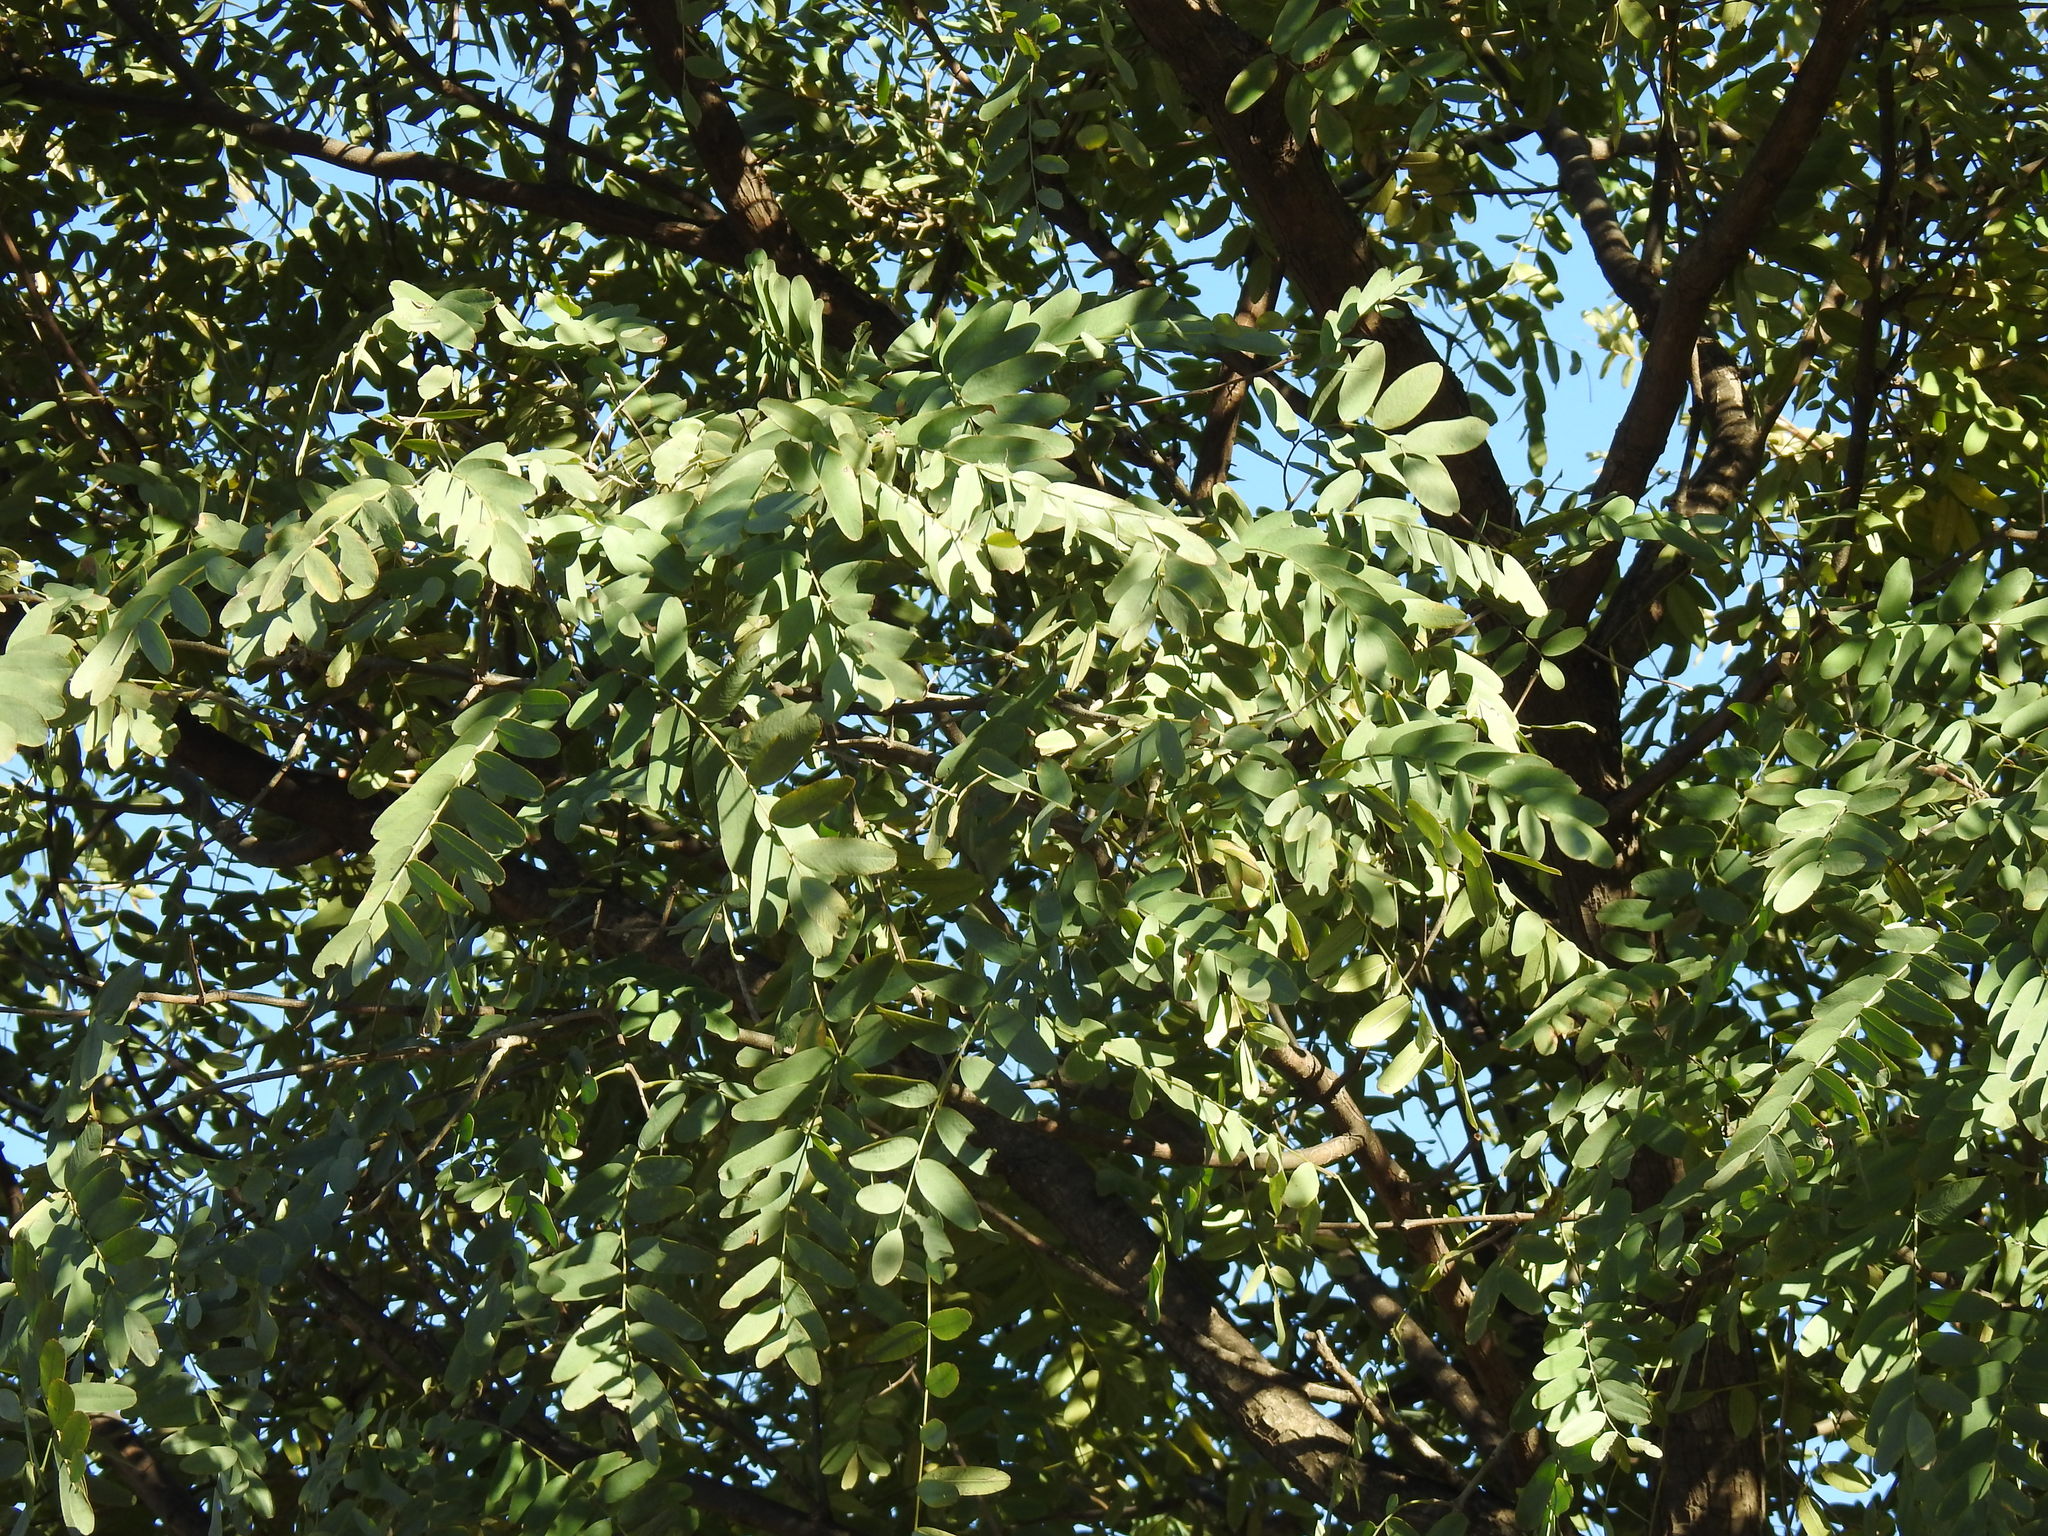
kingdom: Plantae
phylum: Tracheophyta
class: Magnoliopsida
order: Fabales
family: Fabaceae
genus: Tipuana
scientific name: Tipuana tipu
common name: Tiputree
